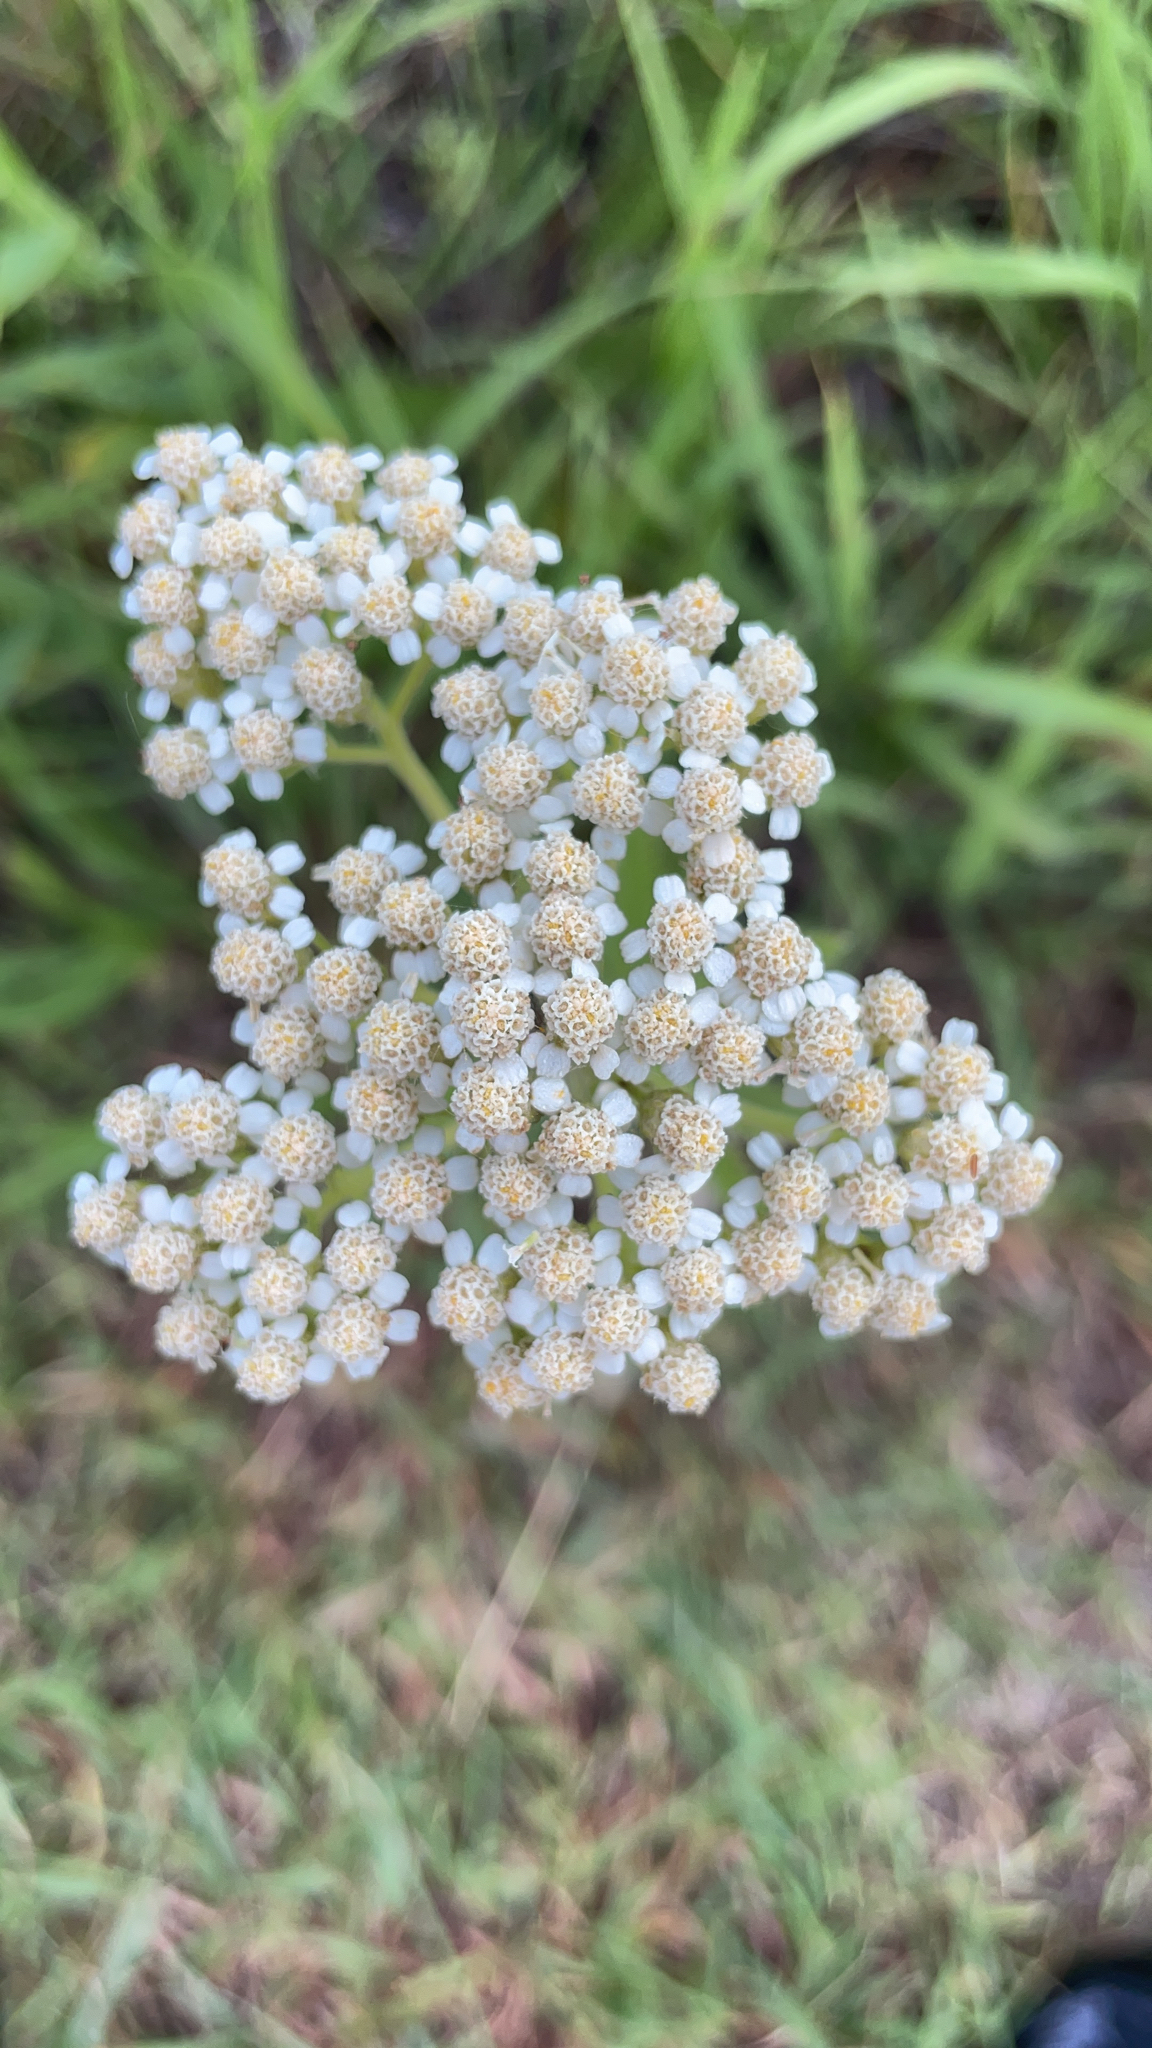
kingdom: Plantae
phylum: Tracheophyta
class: Magnoliopsida
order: Asterales
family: Asteraceae
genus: Achillea
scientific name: Achillea millefolium
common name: Yarrow
